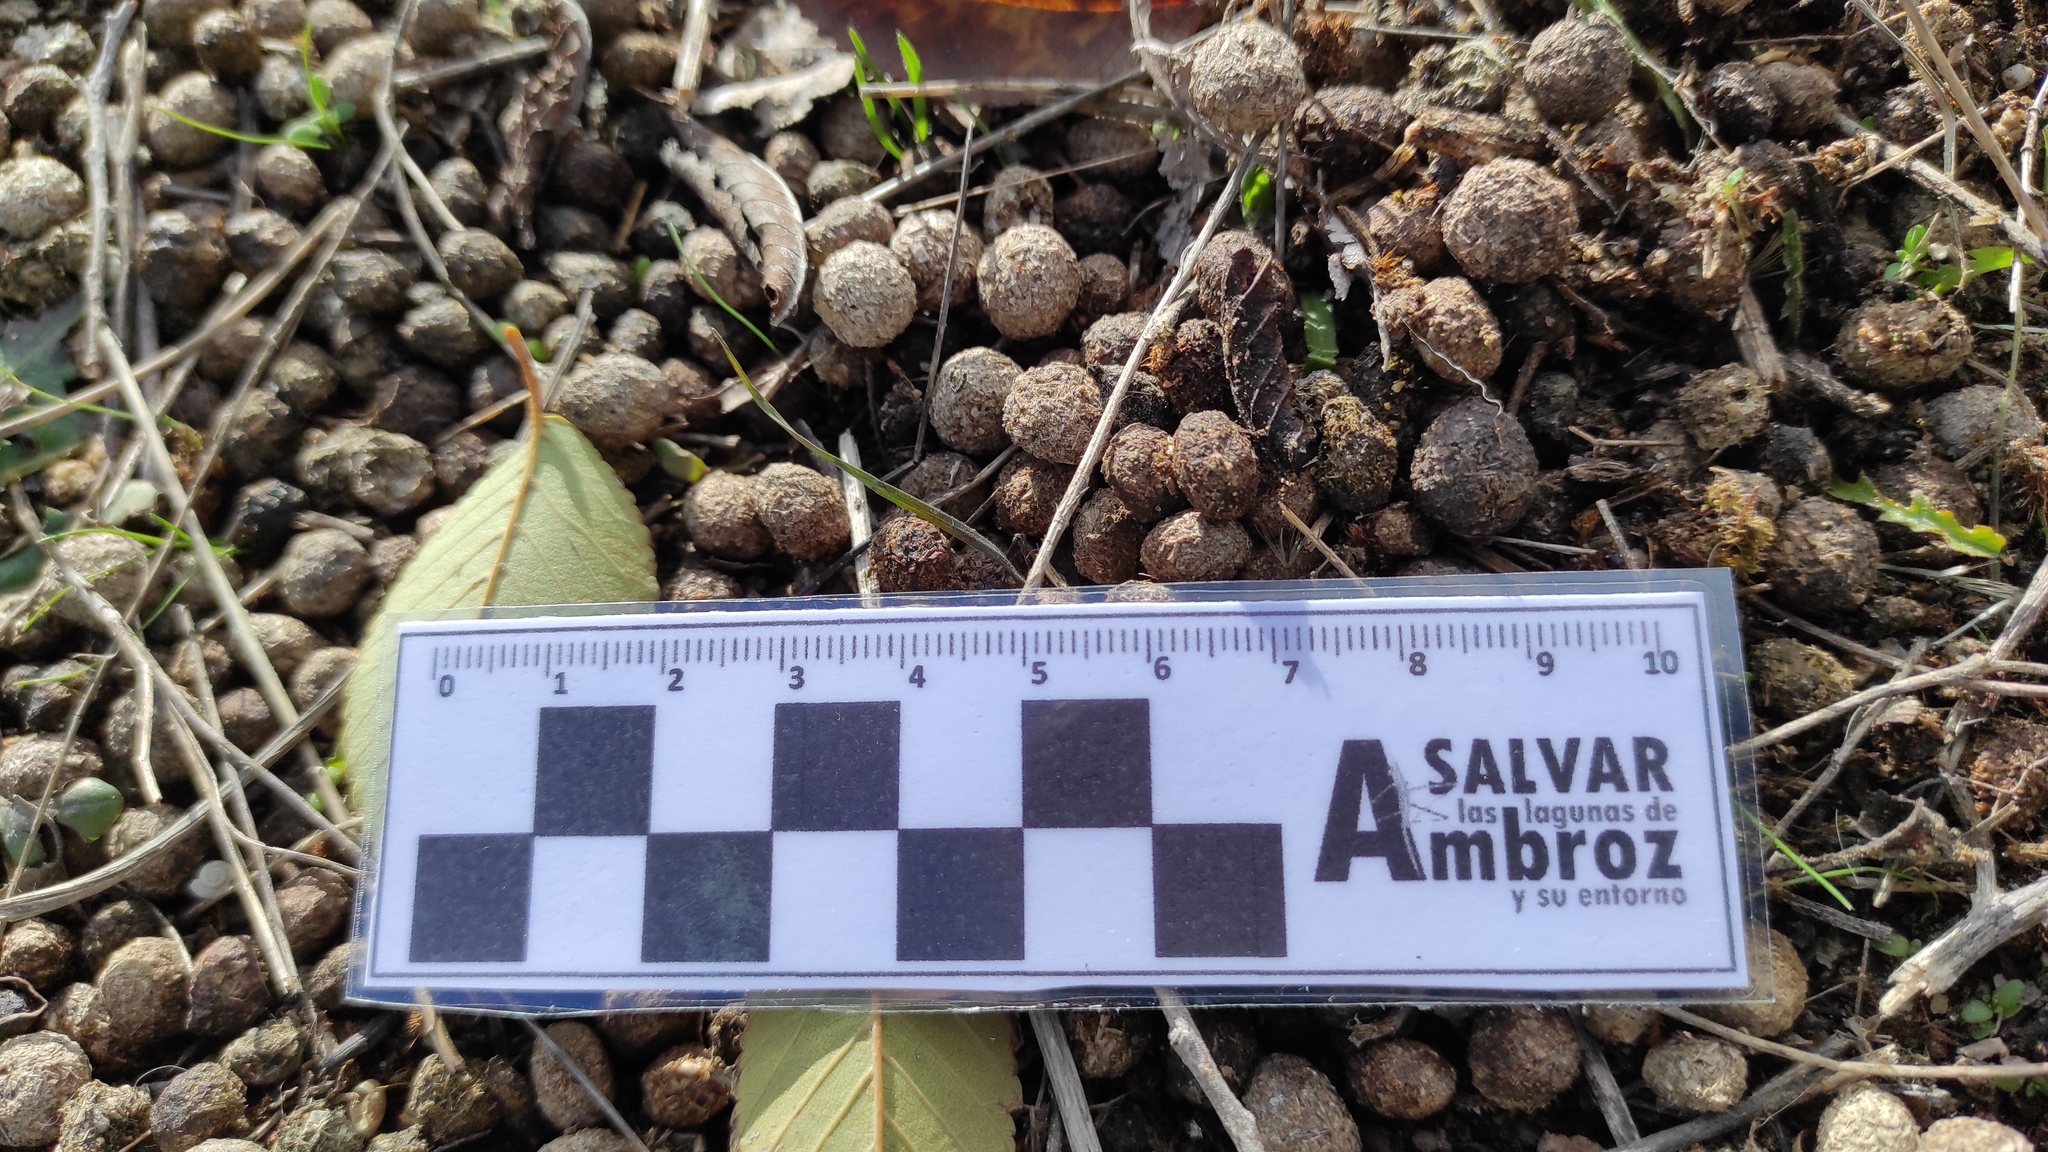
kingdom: Animalia
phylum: Chordata
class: Mammalia
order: Lagomorpha
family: Leporidae
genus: Oryctolagus
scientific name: Oryctolagus cuniculus
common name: European rabbit
